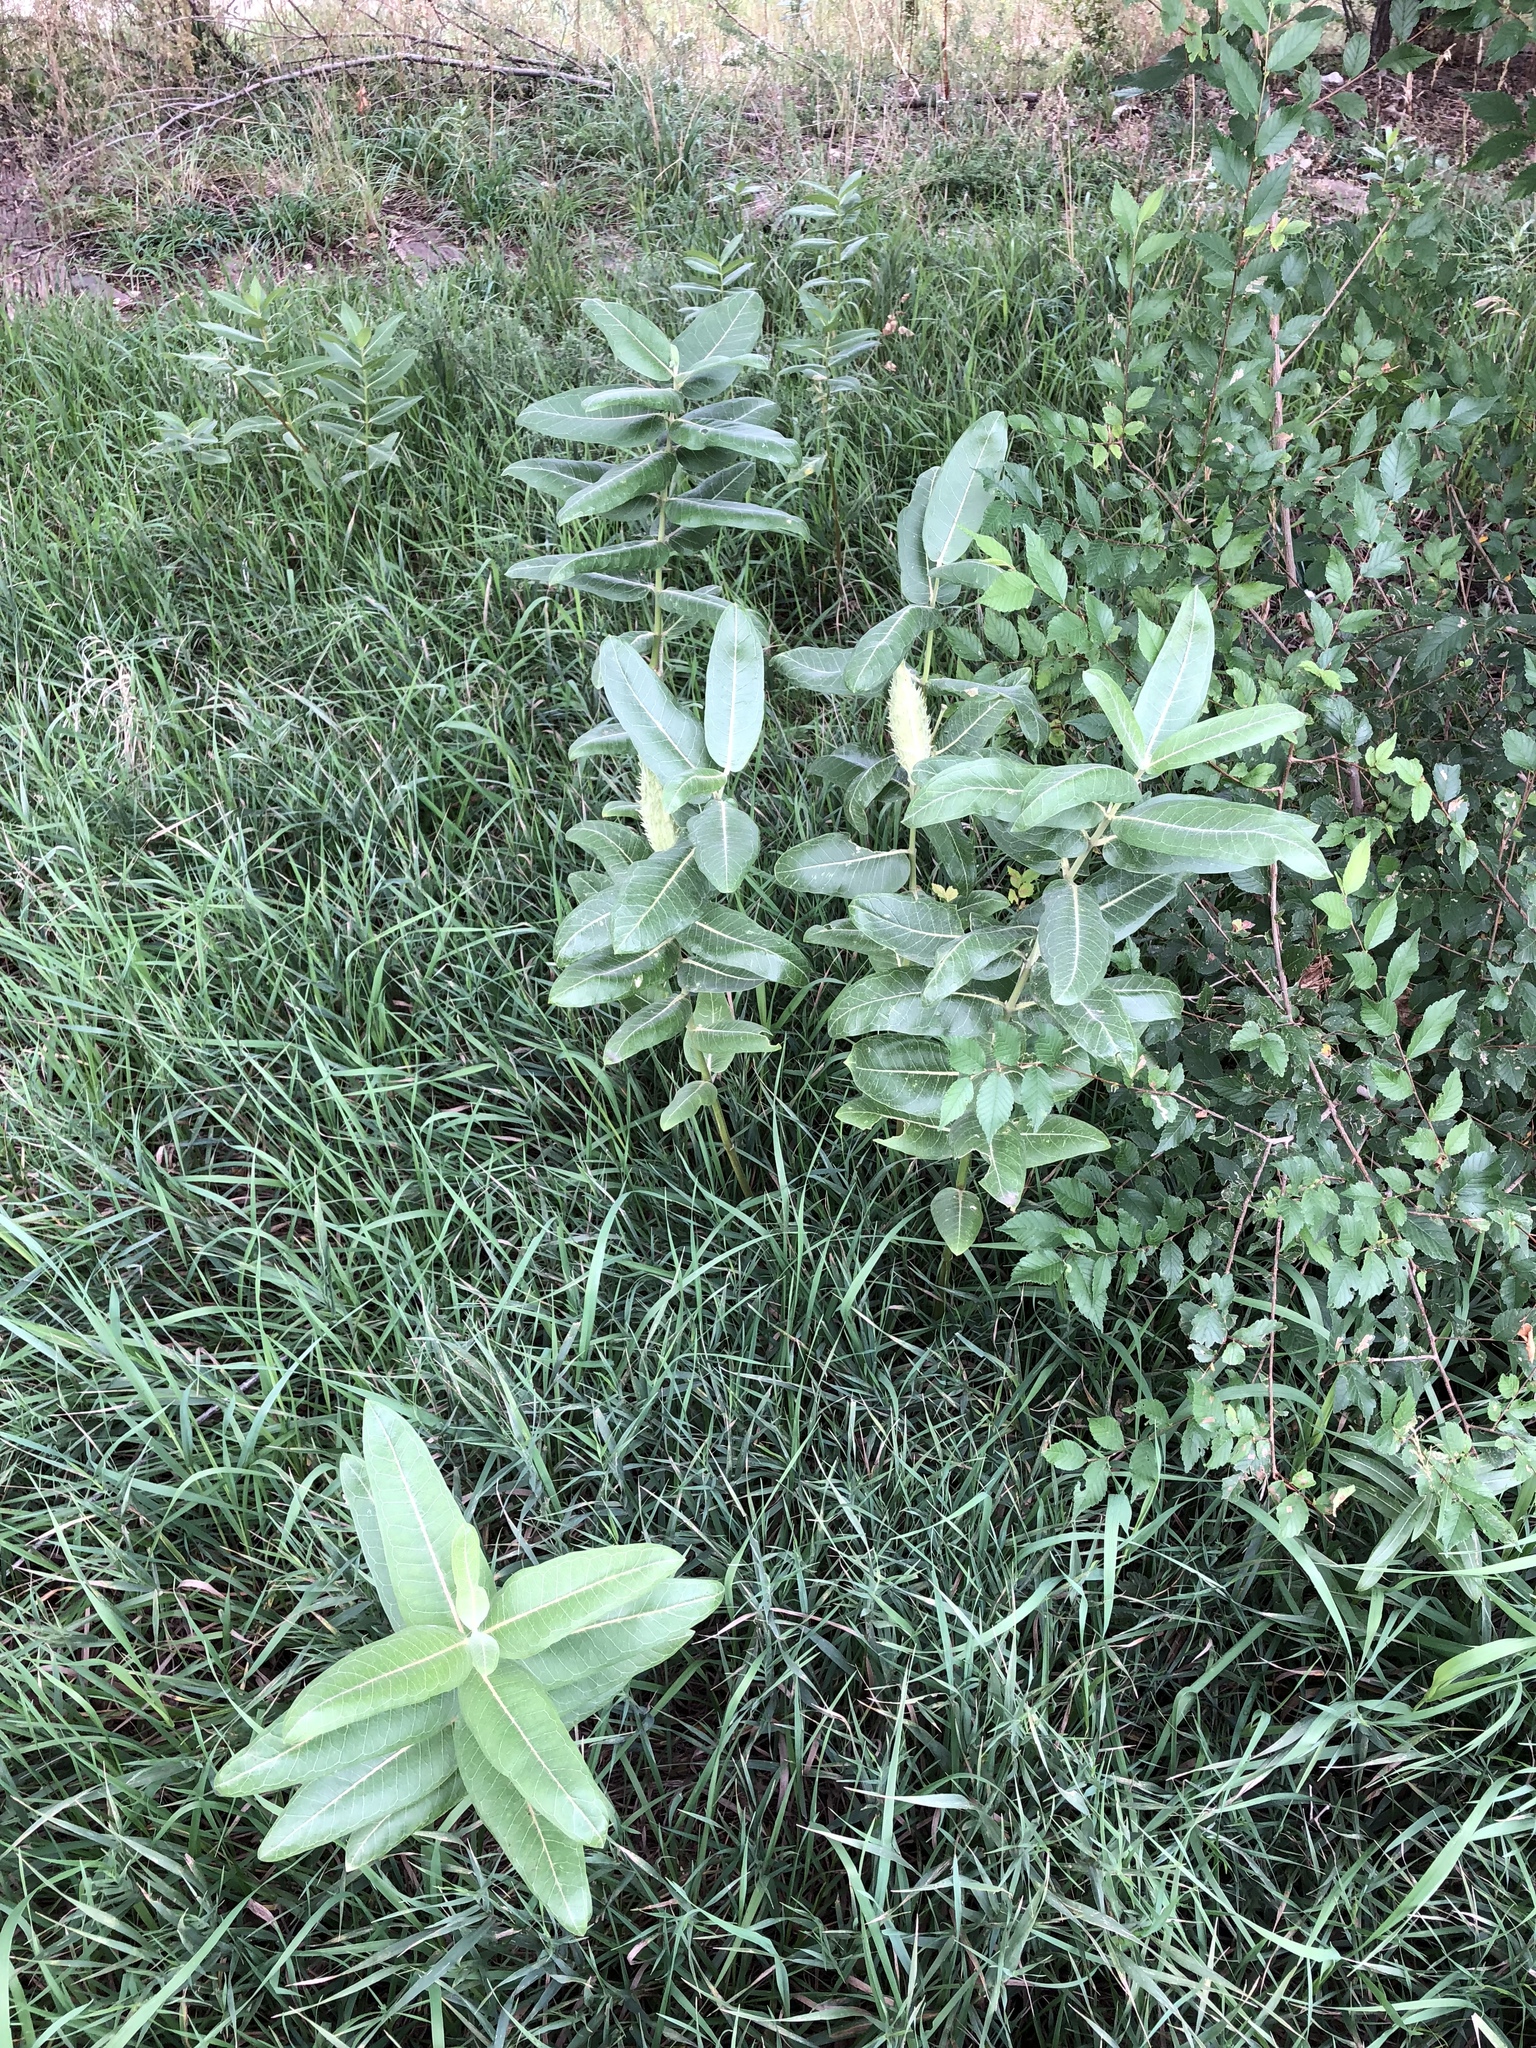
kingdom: Plantae
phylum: Tracheophyta
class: Magnoliopsida
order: Gentianales
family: Apocynaceae
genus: Asclepias
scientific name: Asclepias speciosa
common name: Showy milkweed
